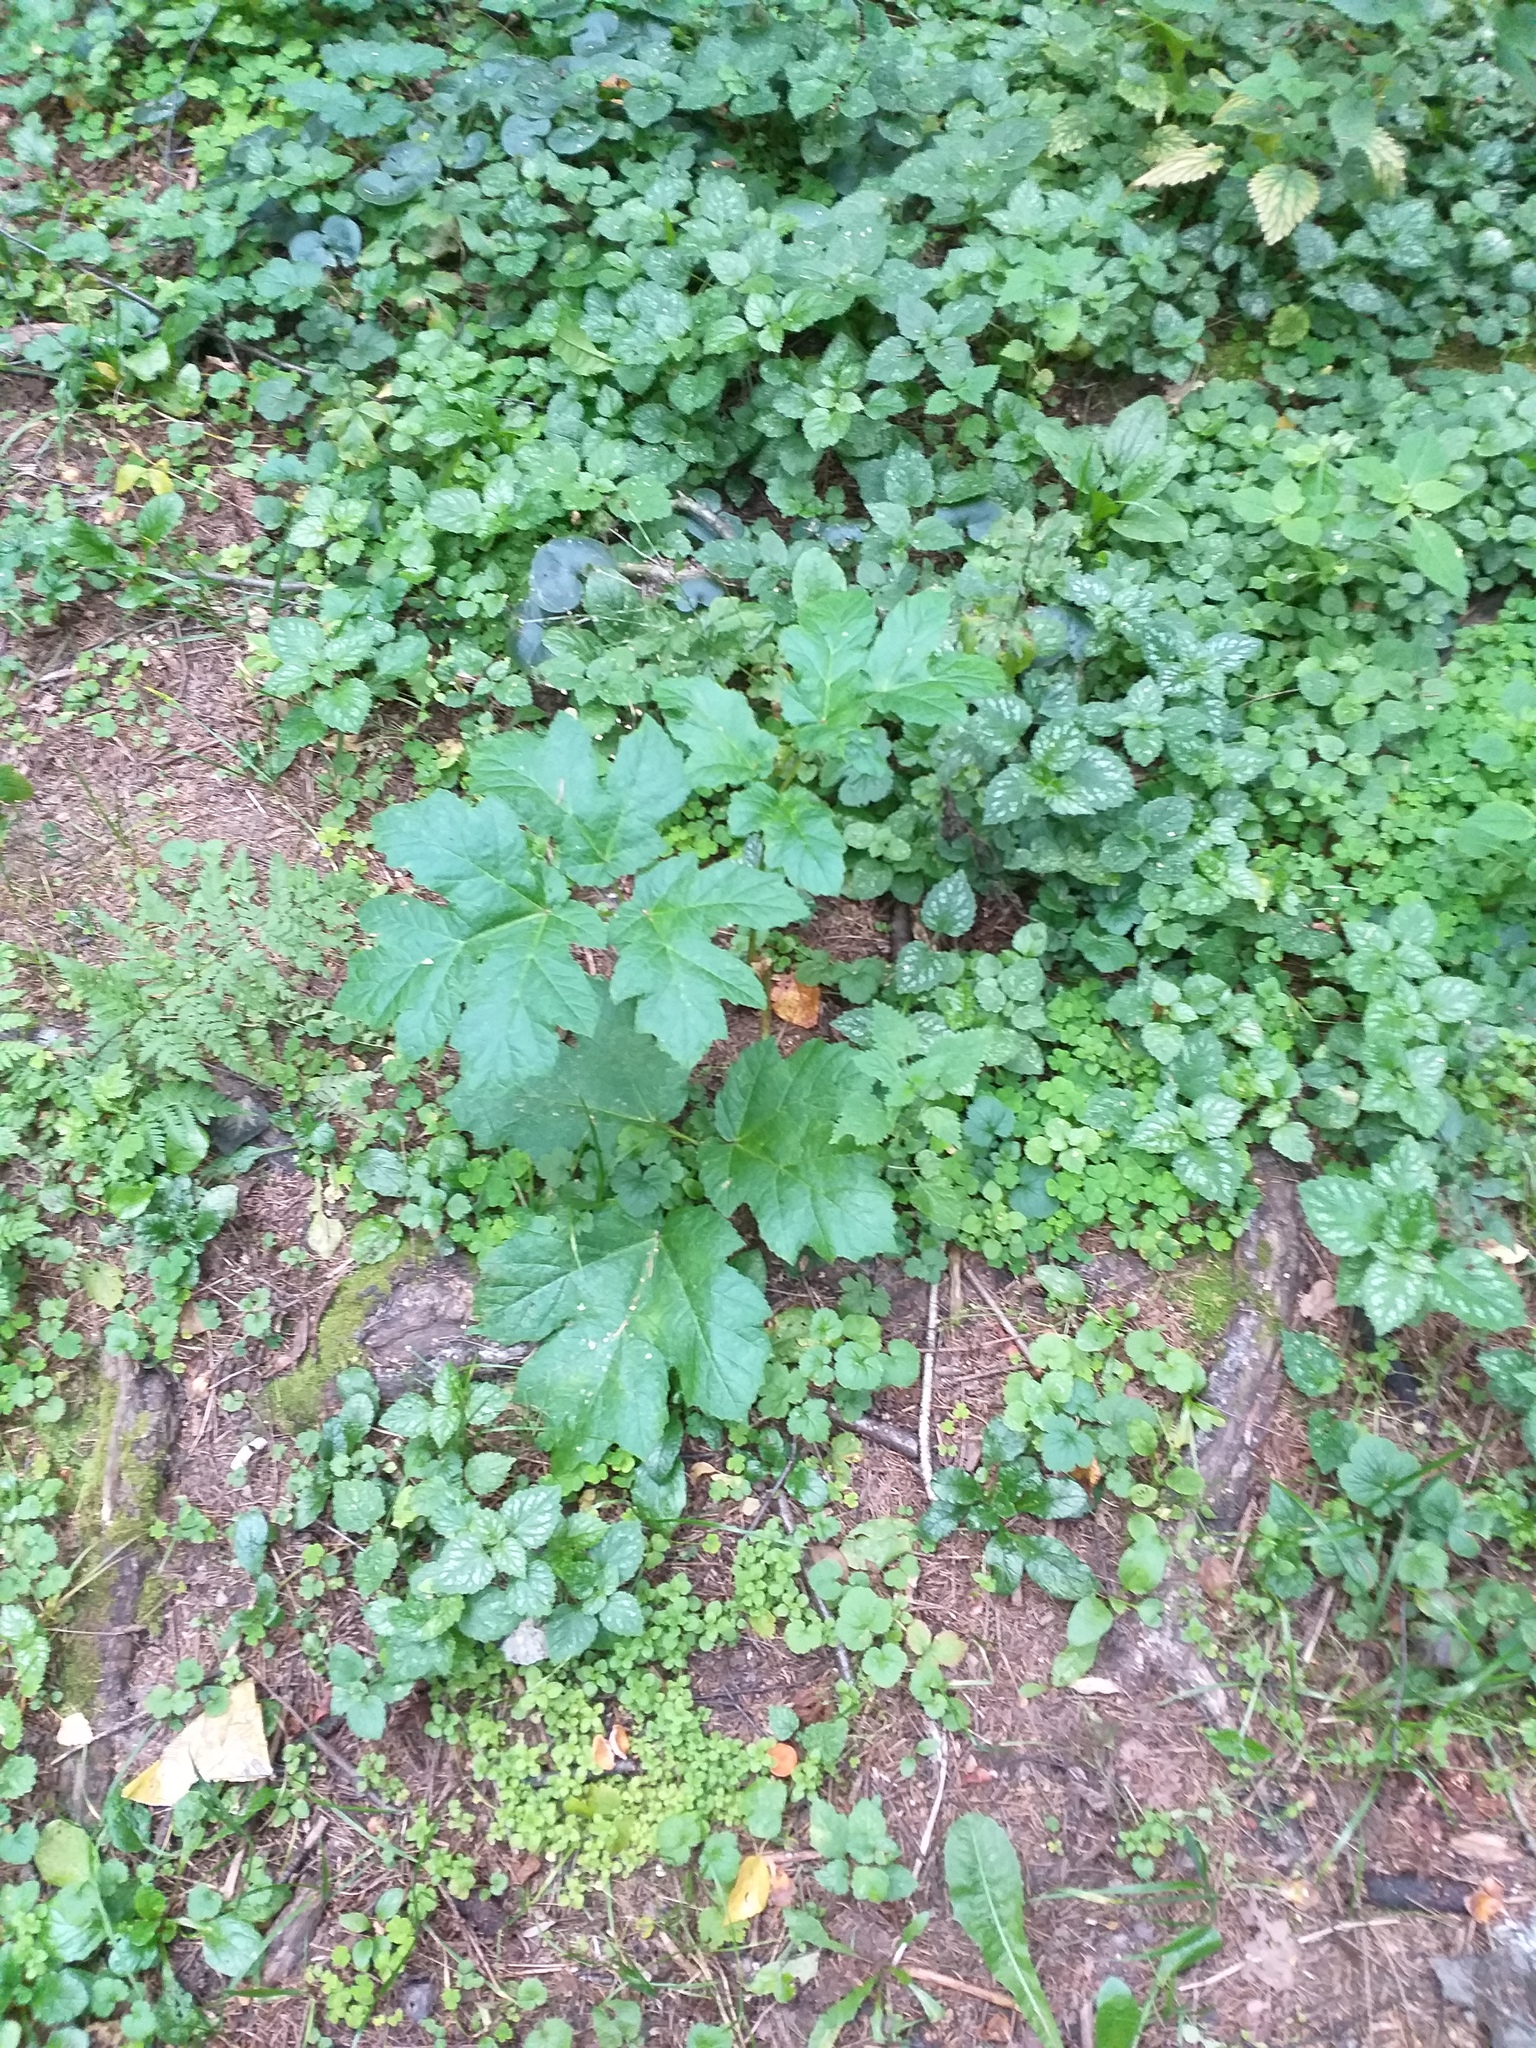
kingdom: Plantae
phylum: Tracheophyta
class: Magnoliopsida
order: Apiales
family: Apiaceae
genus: Heracleum
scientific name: Heracleum sosnowskyi
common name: Sosnowsky's hogweed
